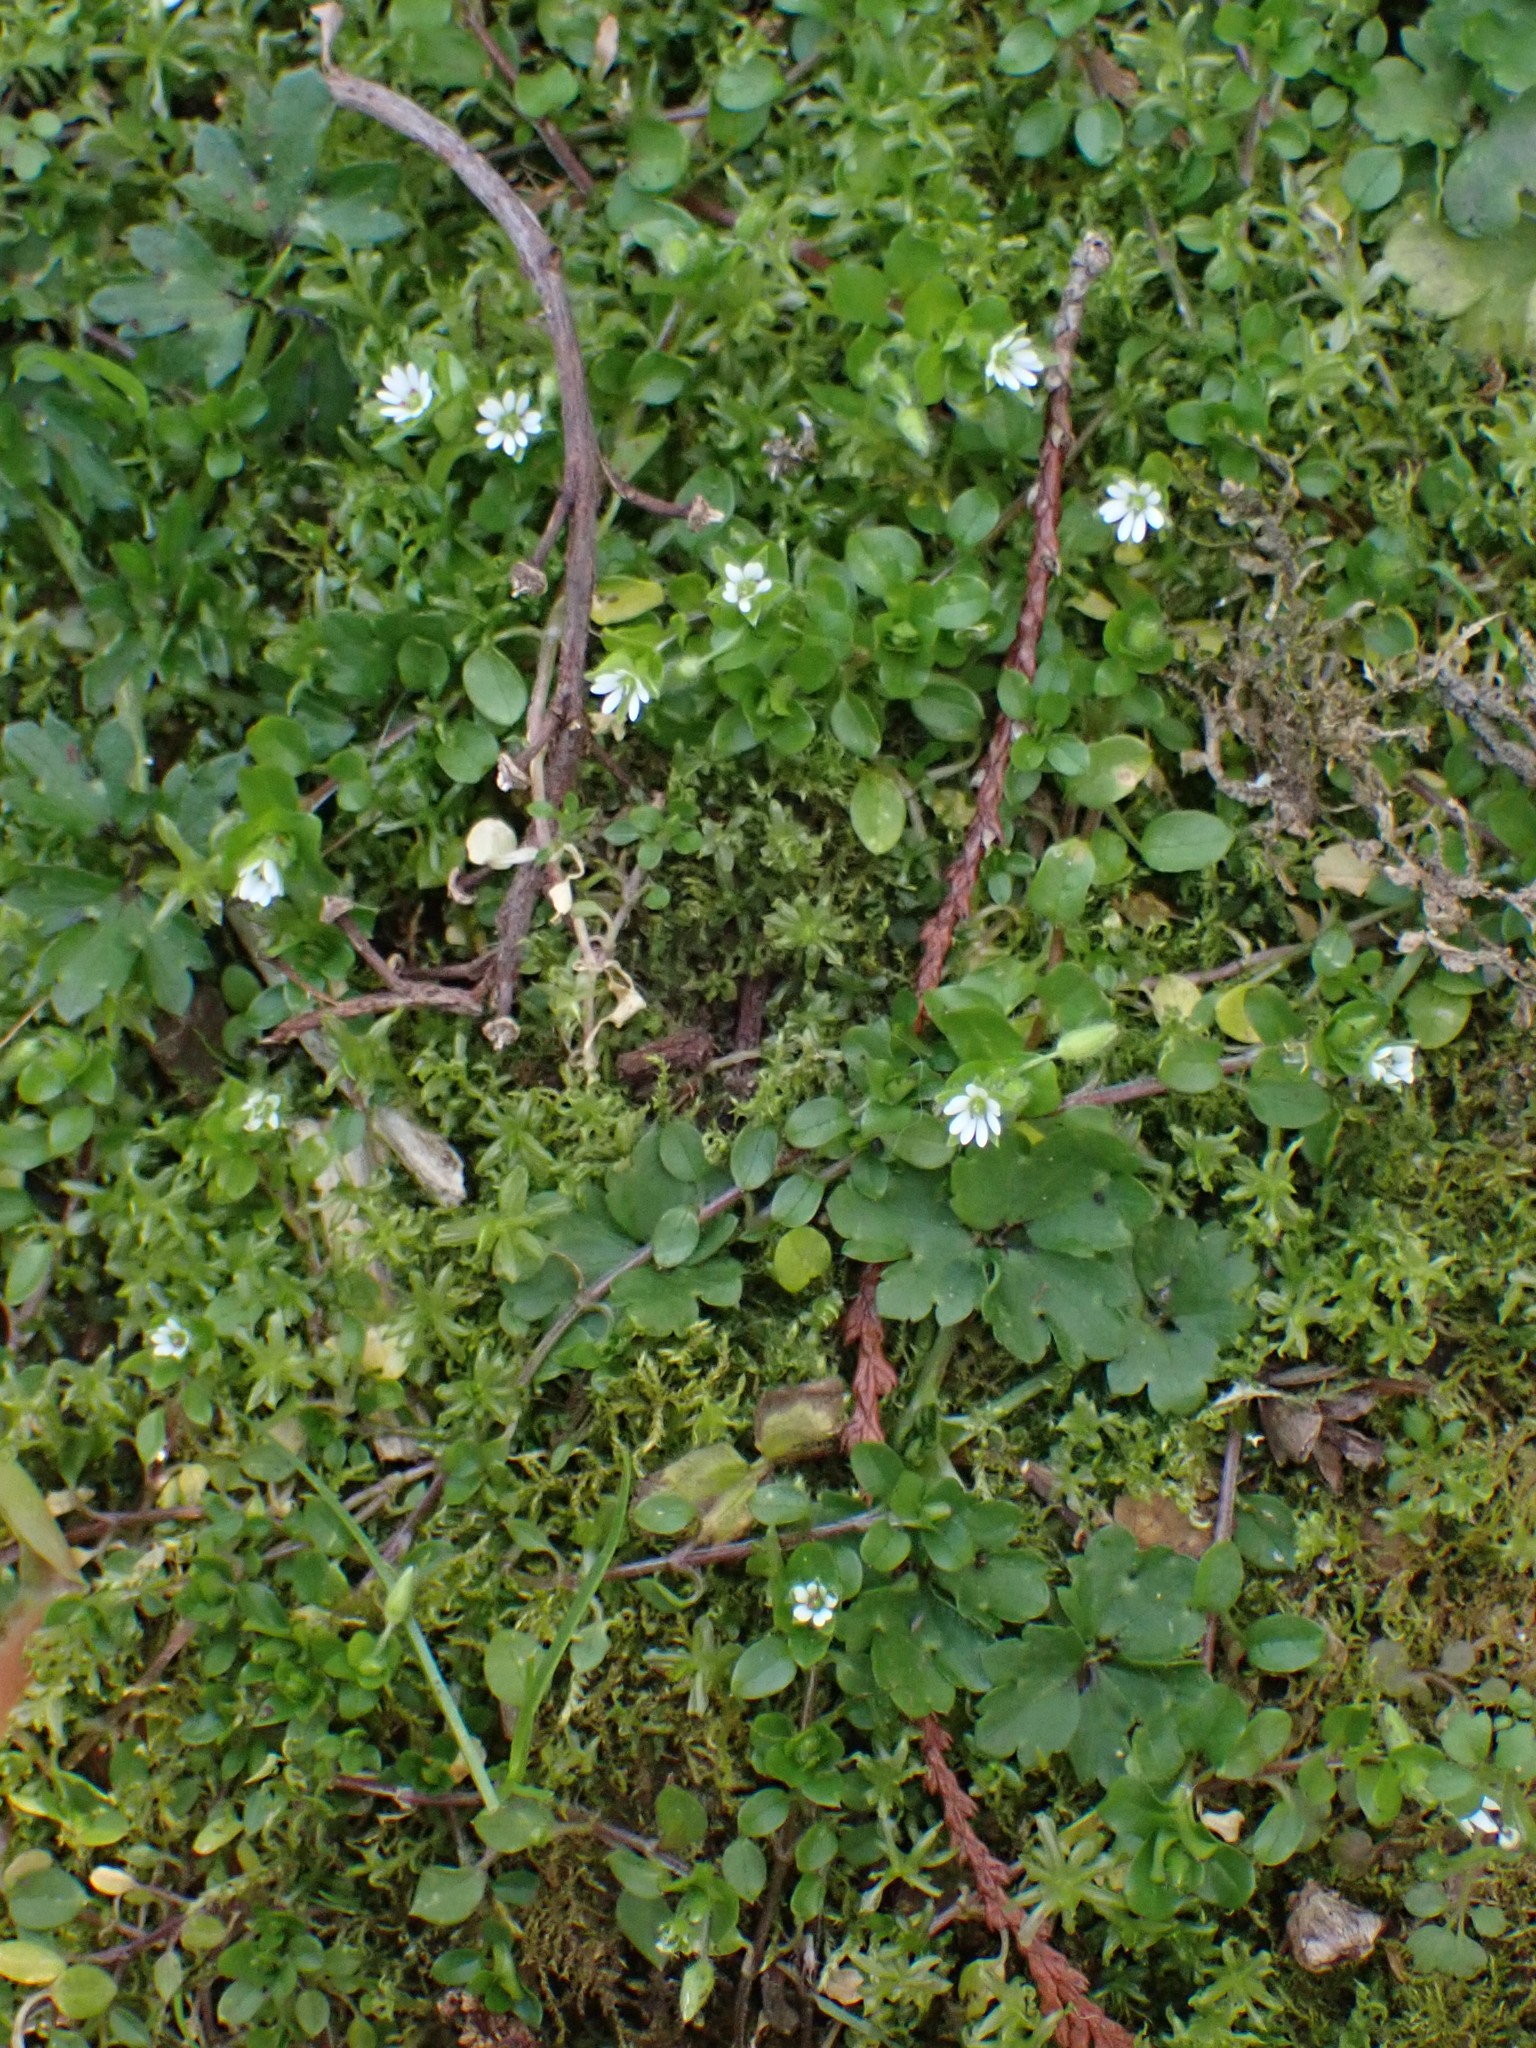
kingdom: Plantae
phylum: Tracheophyta
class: Magnoliopsida
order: Caryophyllales
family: Caryophyllaceae
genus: Stellaria
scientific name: Stellaria media
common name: Common chickweed
